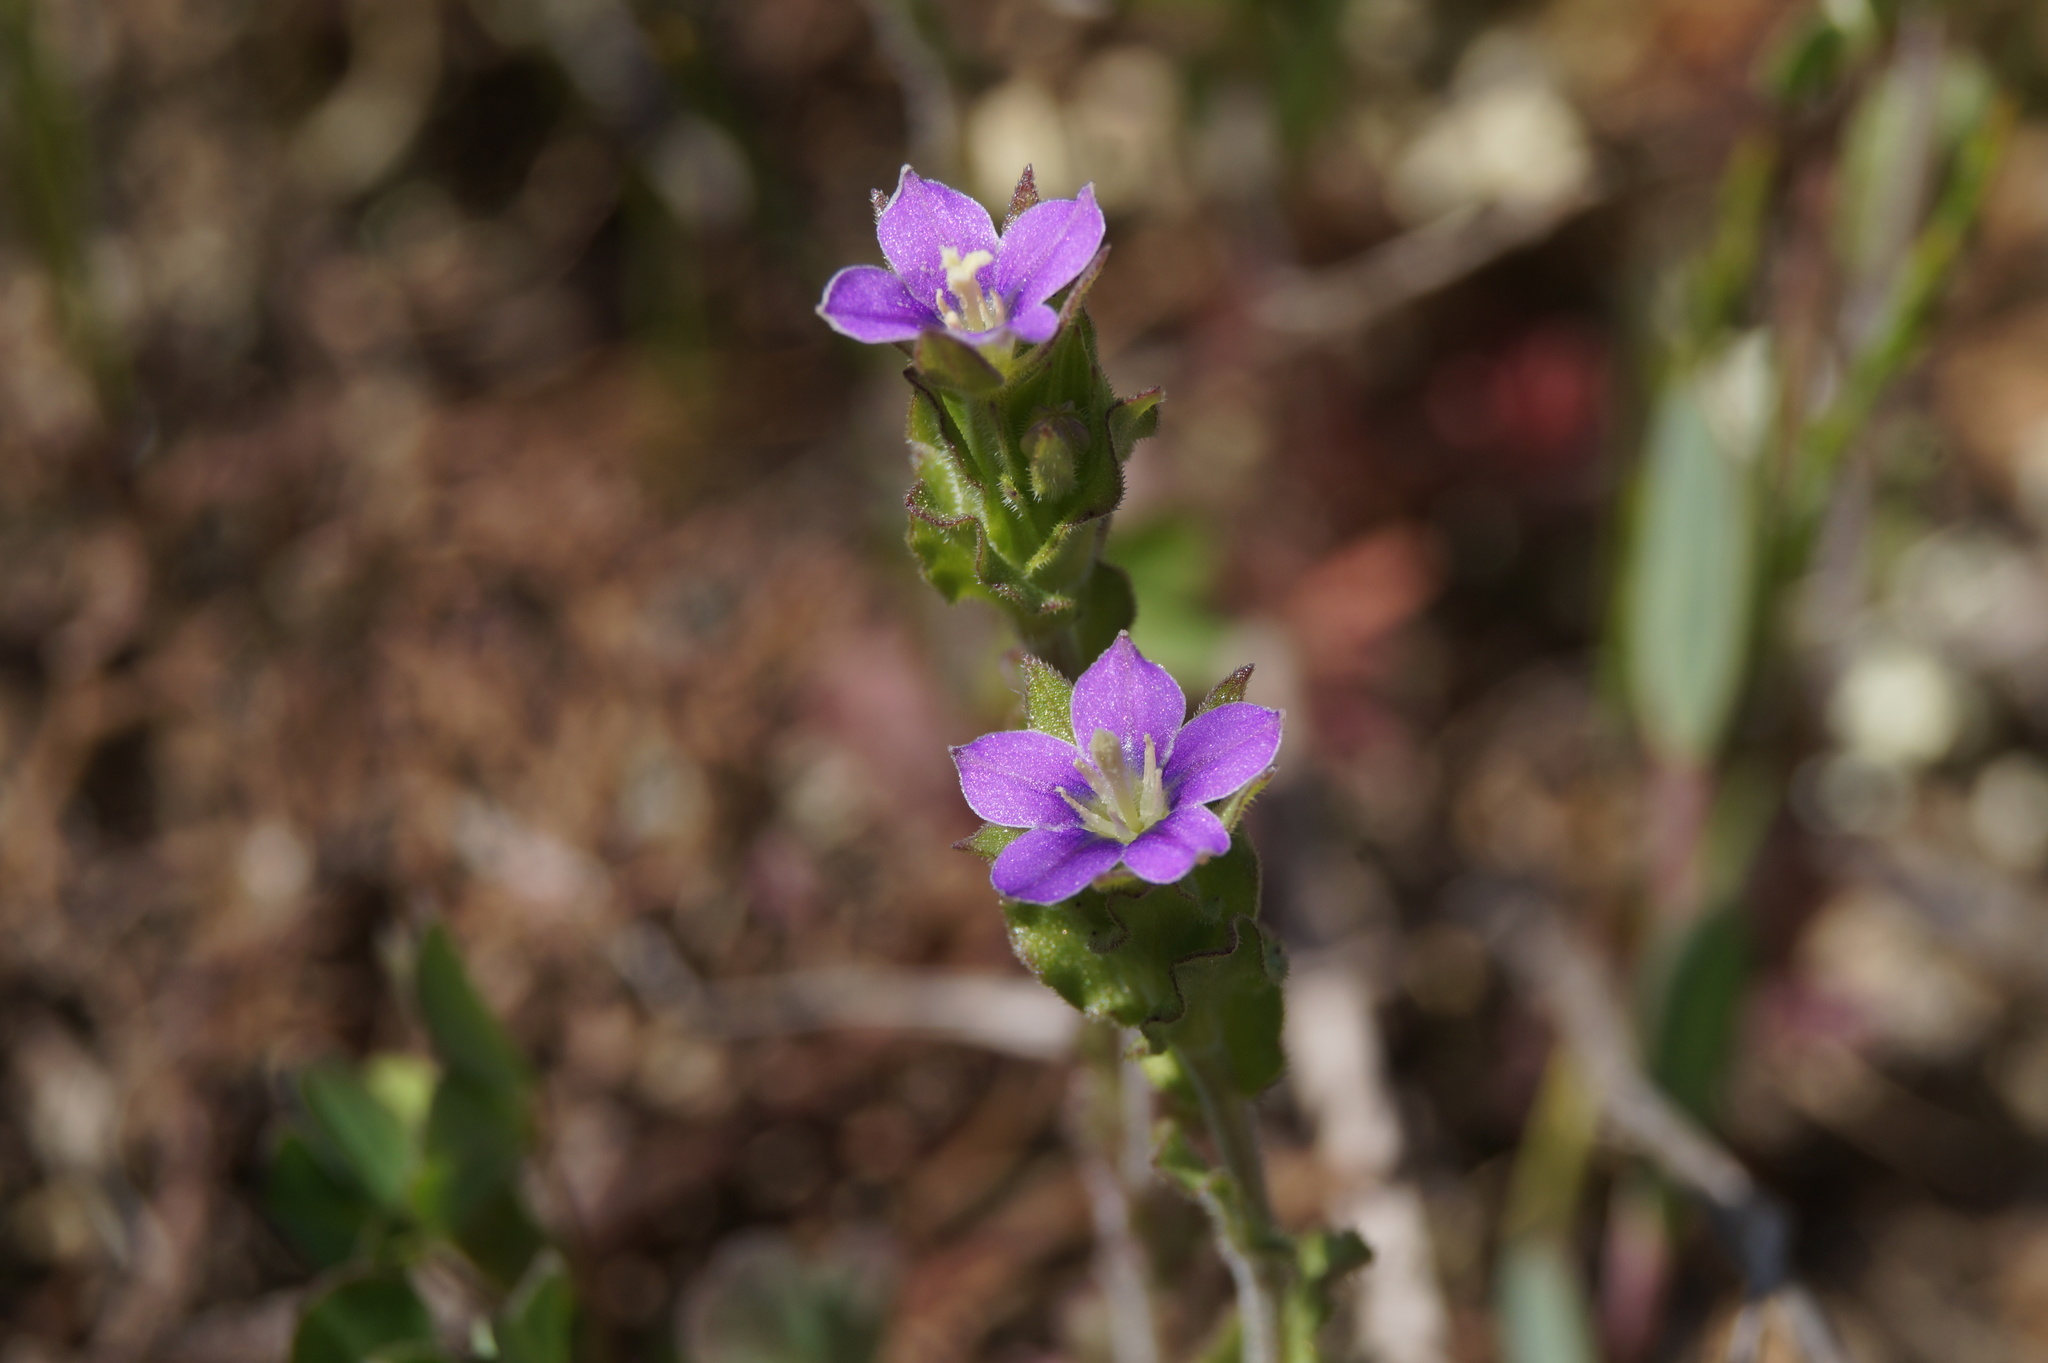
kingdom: Plantae
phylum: Tracheophyta
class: Magnoliopsida
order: Asterales
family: Campanulaceae
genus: Legousia
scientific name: Legousia hybrida
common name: Venus's-looking-glass
